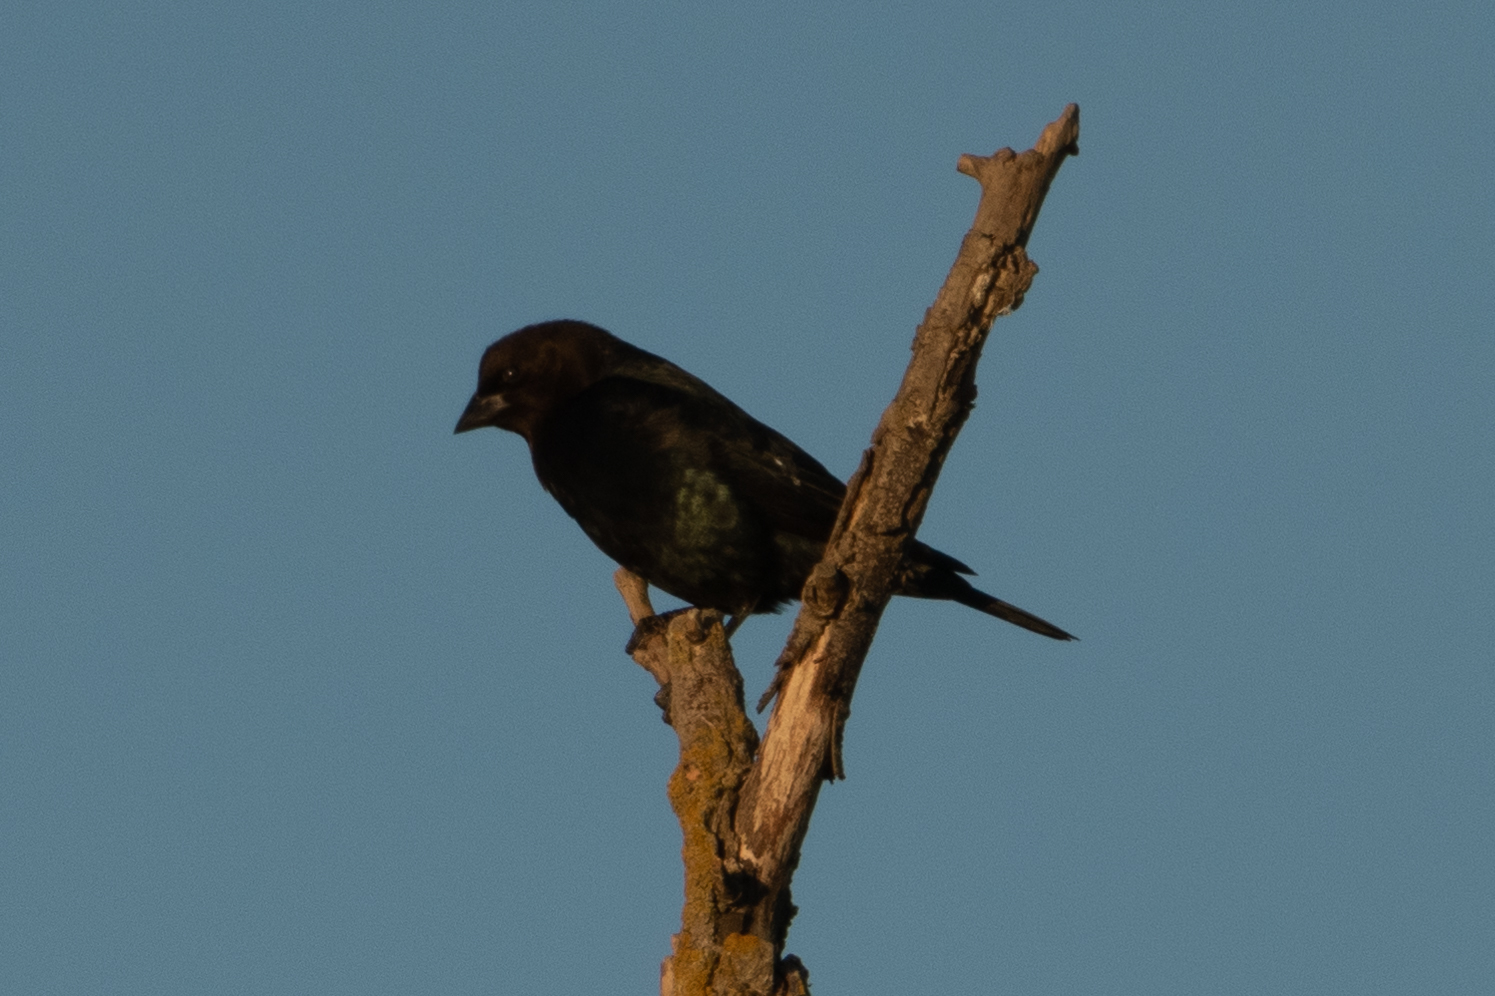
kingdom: Animalia
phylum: Chordata
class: Aves
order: Passeriformes
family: Icteridae
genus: Molothrus
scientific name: Molothrus ater
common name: Brown-headed cowbird
